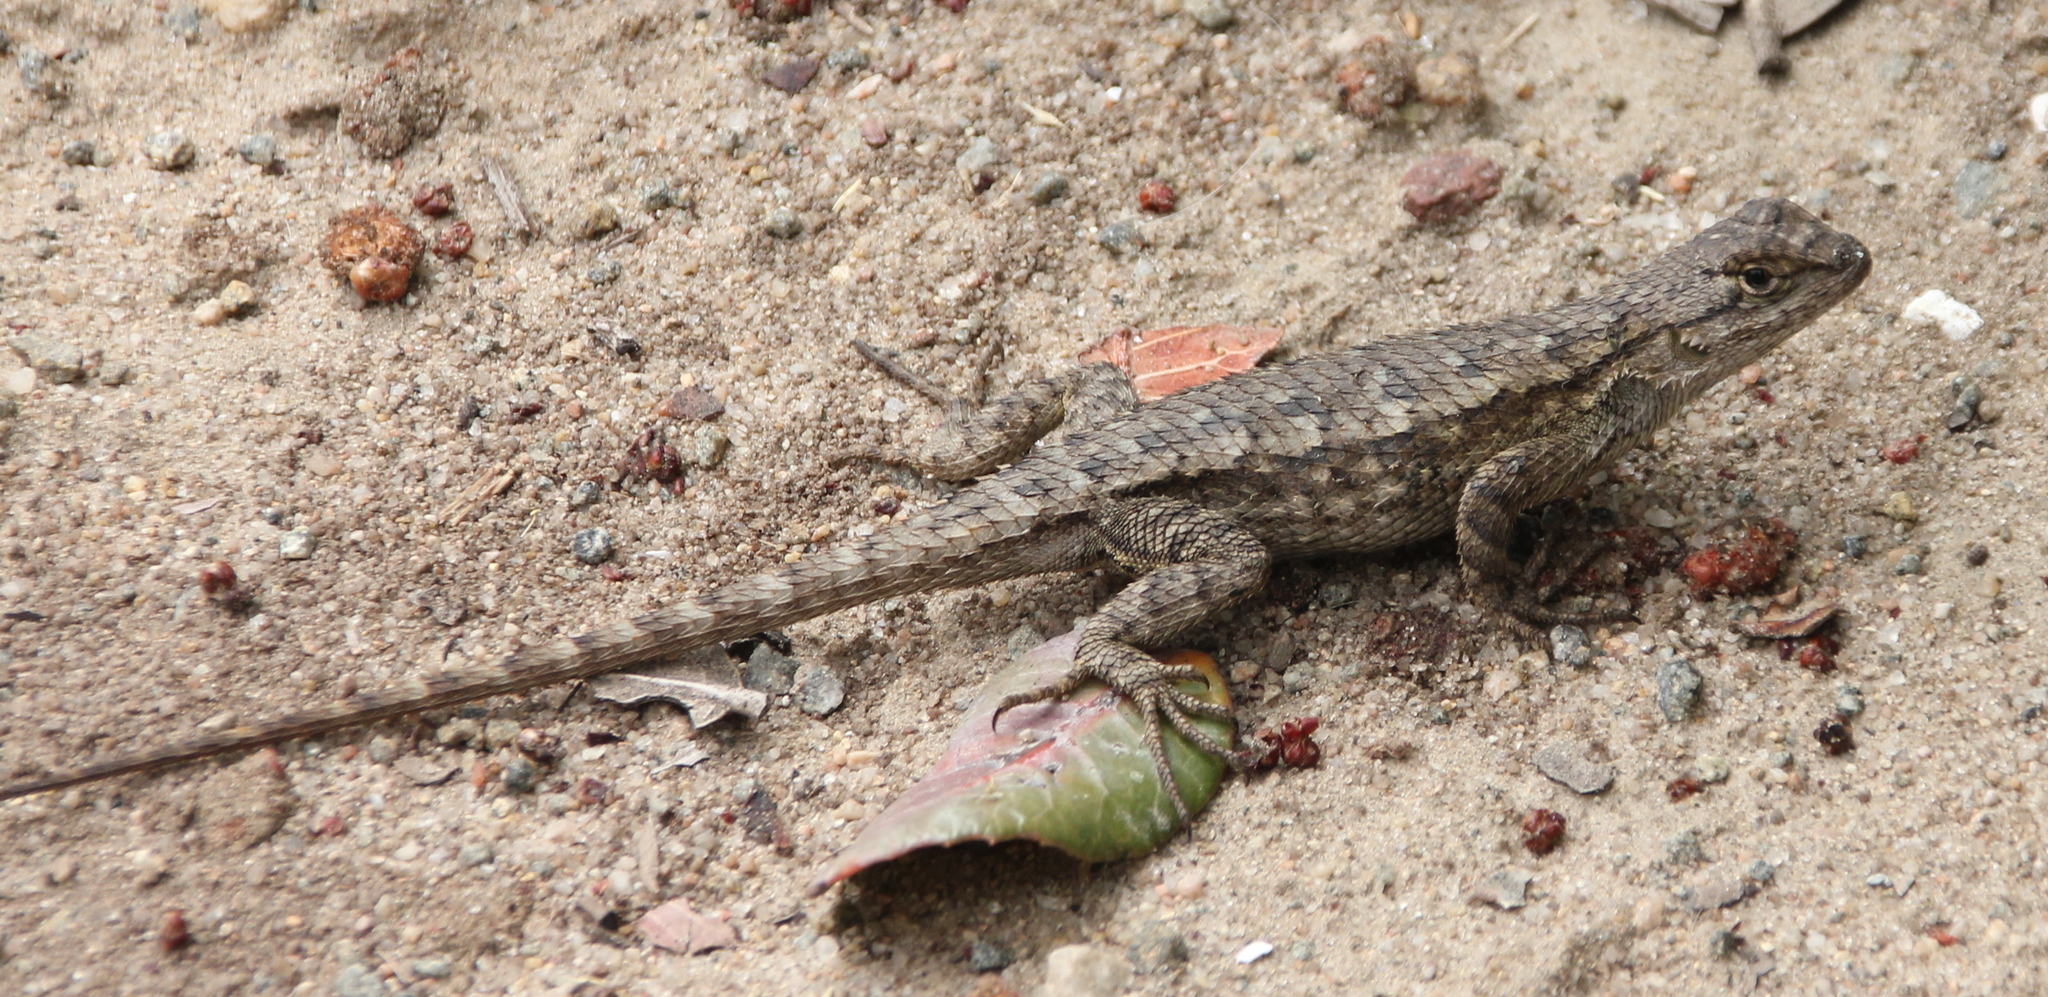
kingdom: Animalia
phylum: Chordata
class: Squamata
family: Phrynosomatidae
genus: Sceloporus
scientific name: Sceloporus occidentalis
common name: Western fence lizard
